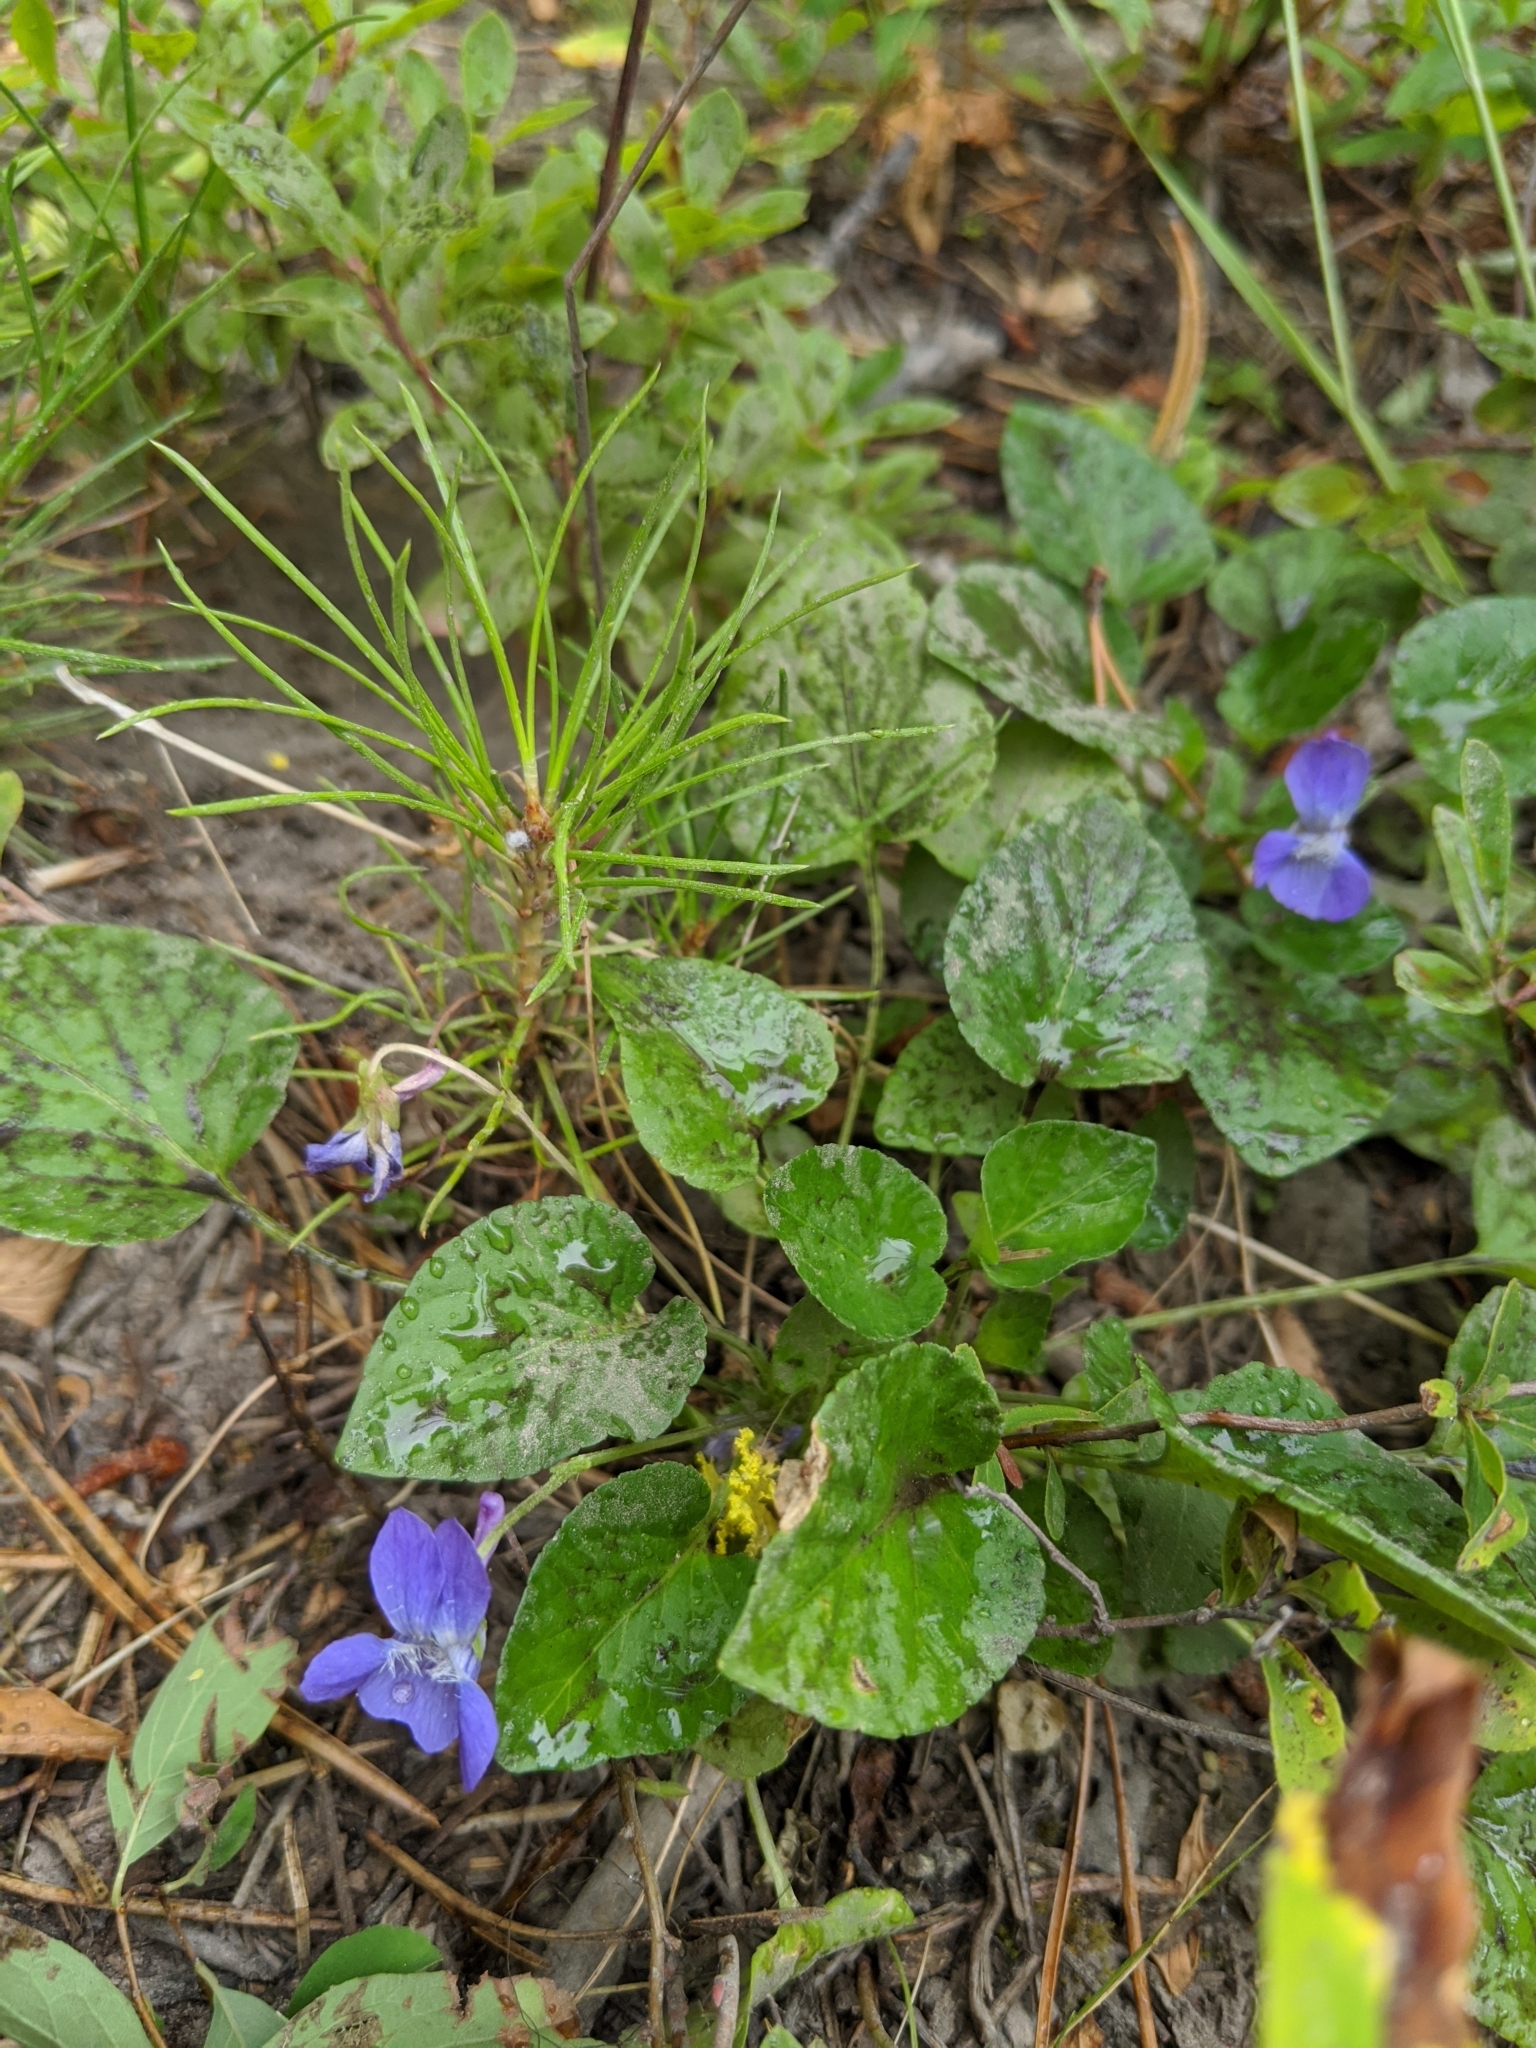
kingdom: Plantae
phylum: Tracheophyta
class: Magnoliopsida
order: Malpighiales
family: Violaceae
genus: Viola
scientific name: Viola adunca
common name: Sand violet
